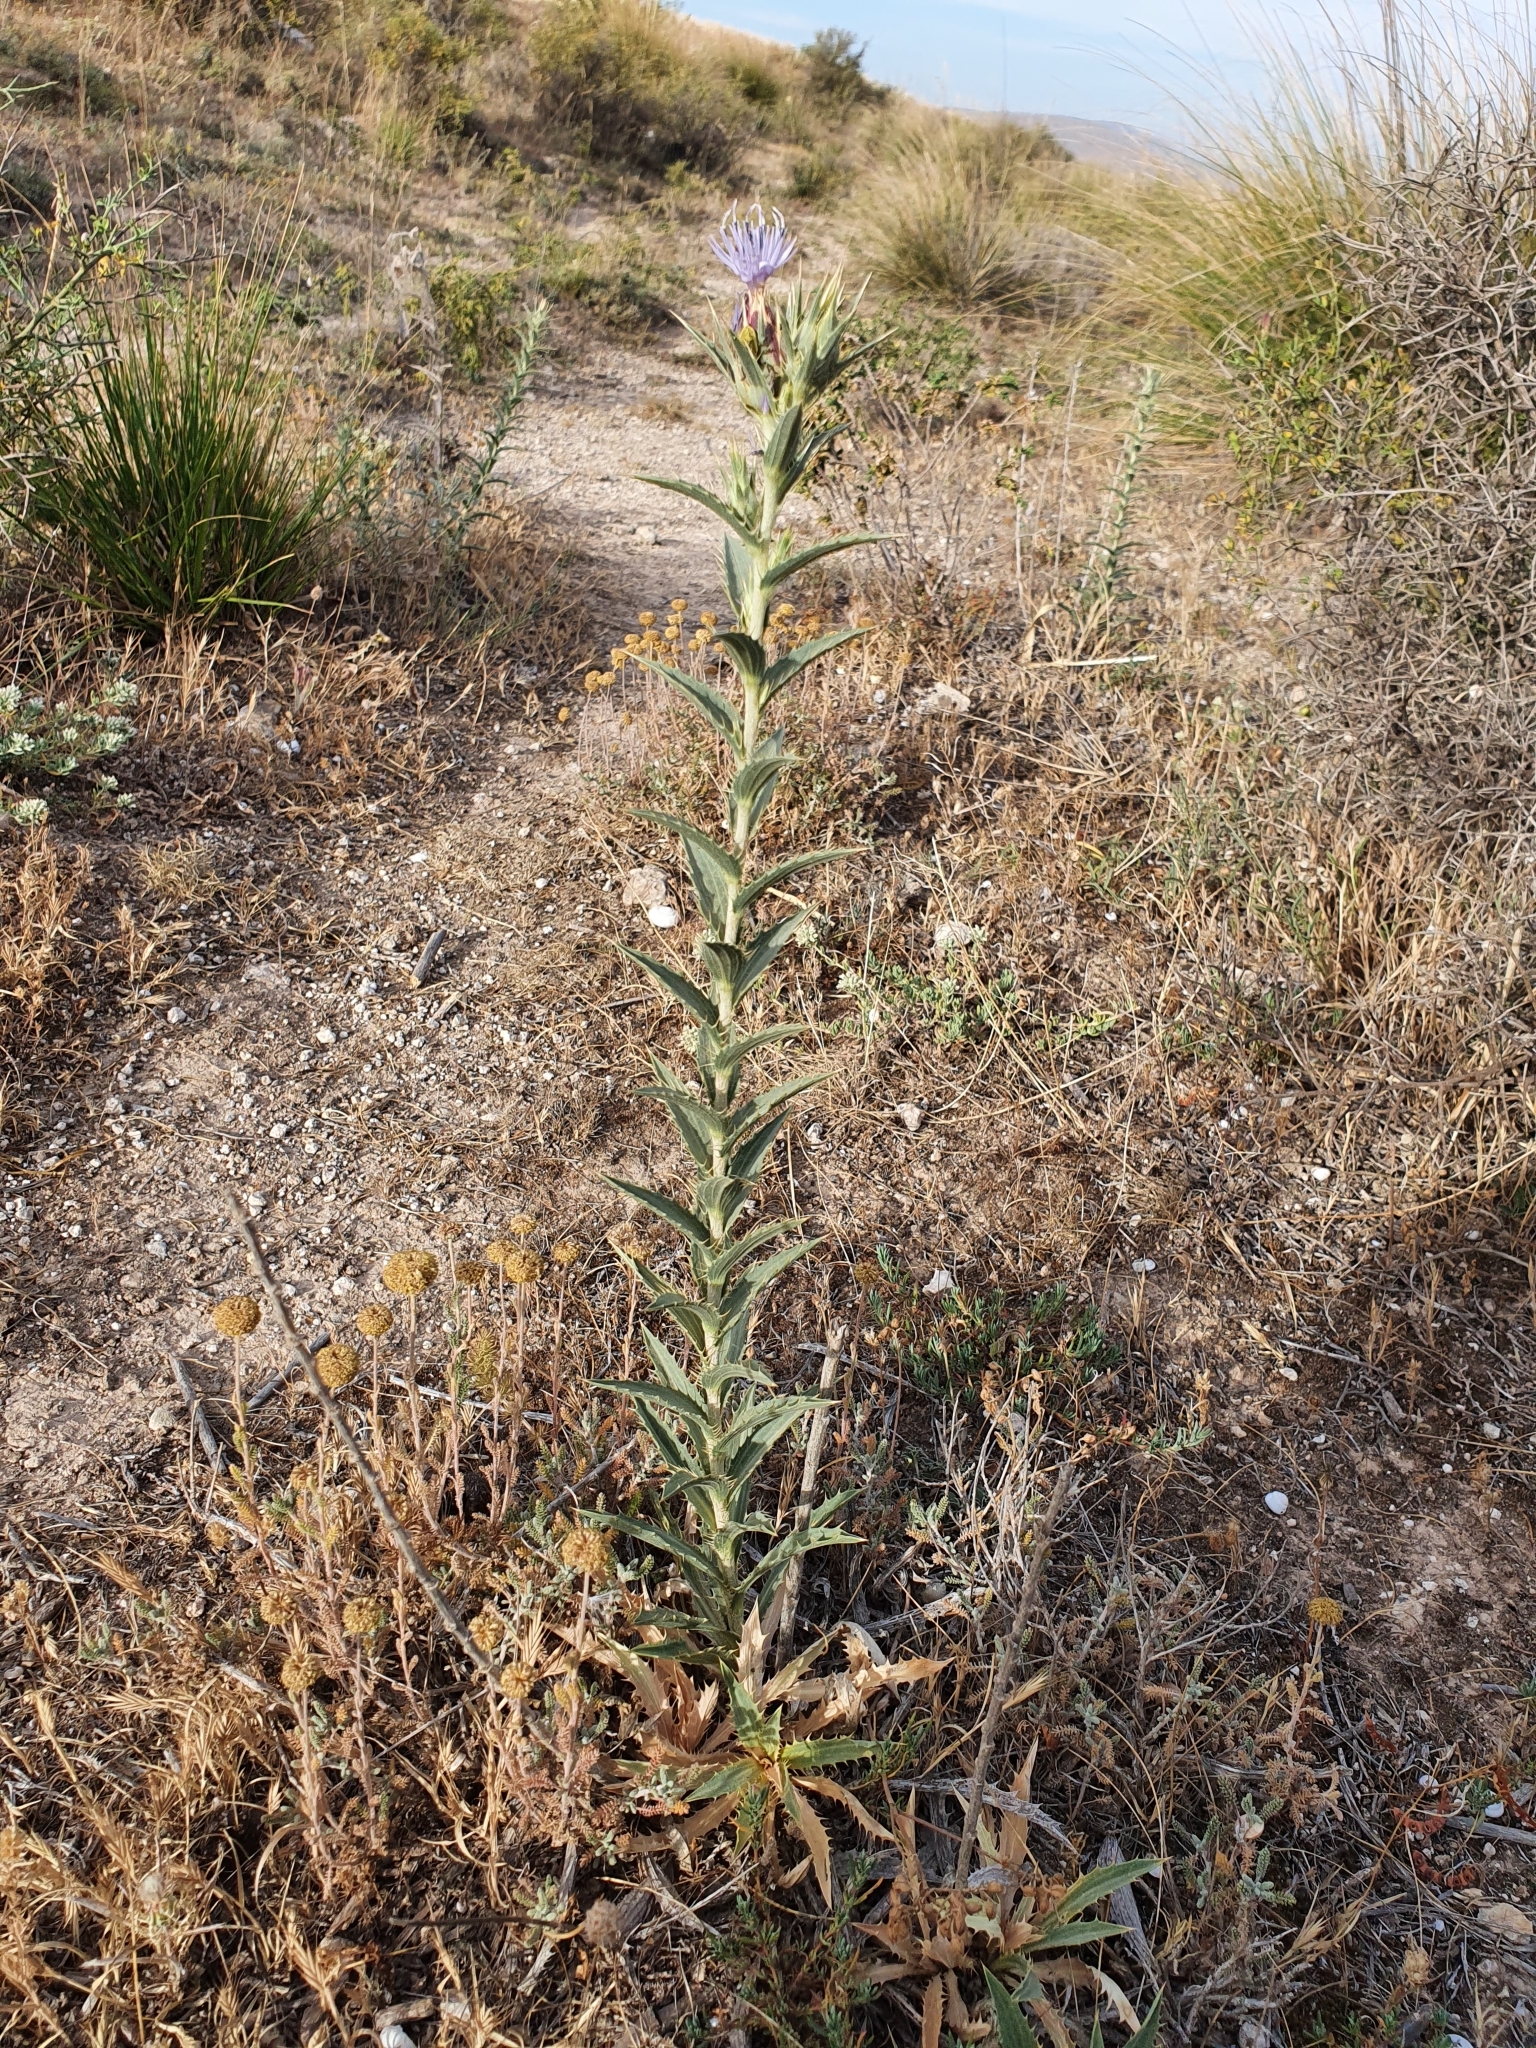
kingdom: Plantae
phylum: Tracheophyta
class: Magnoliopsida
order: Asterales
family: Asteraceae
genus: Carduncellus
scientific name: Carduncellus pectinatus
